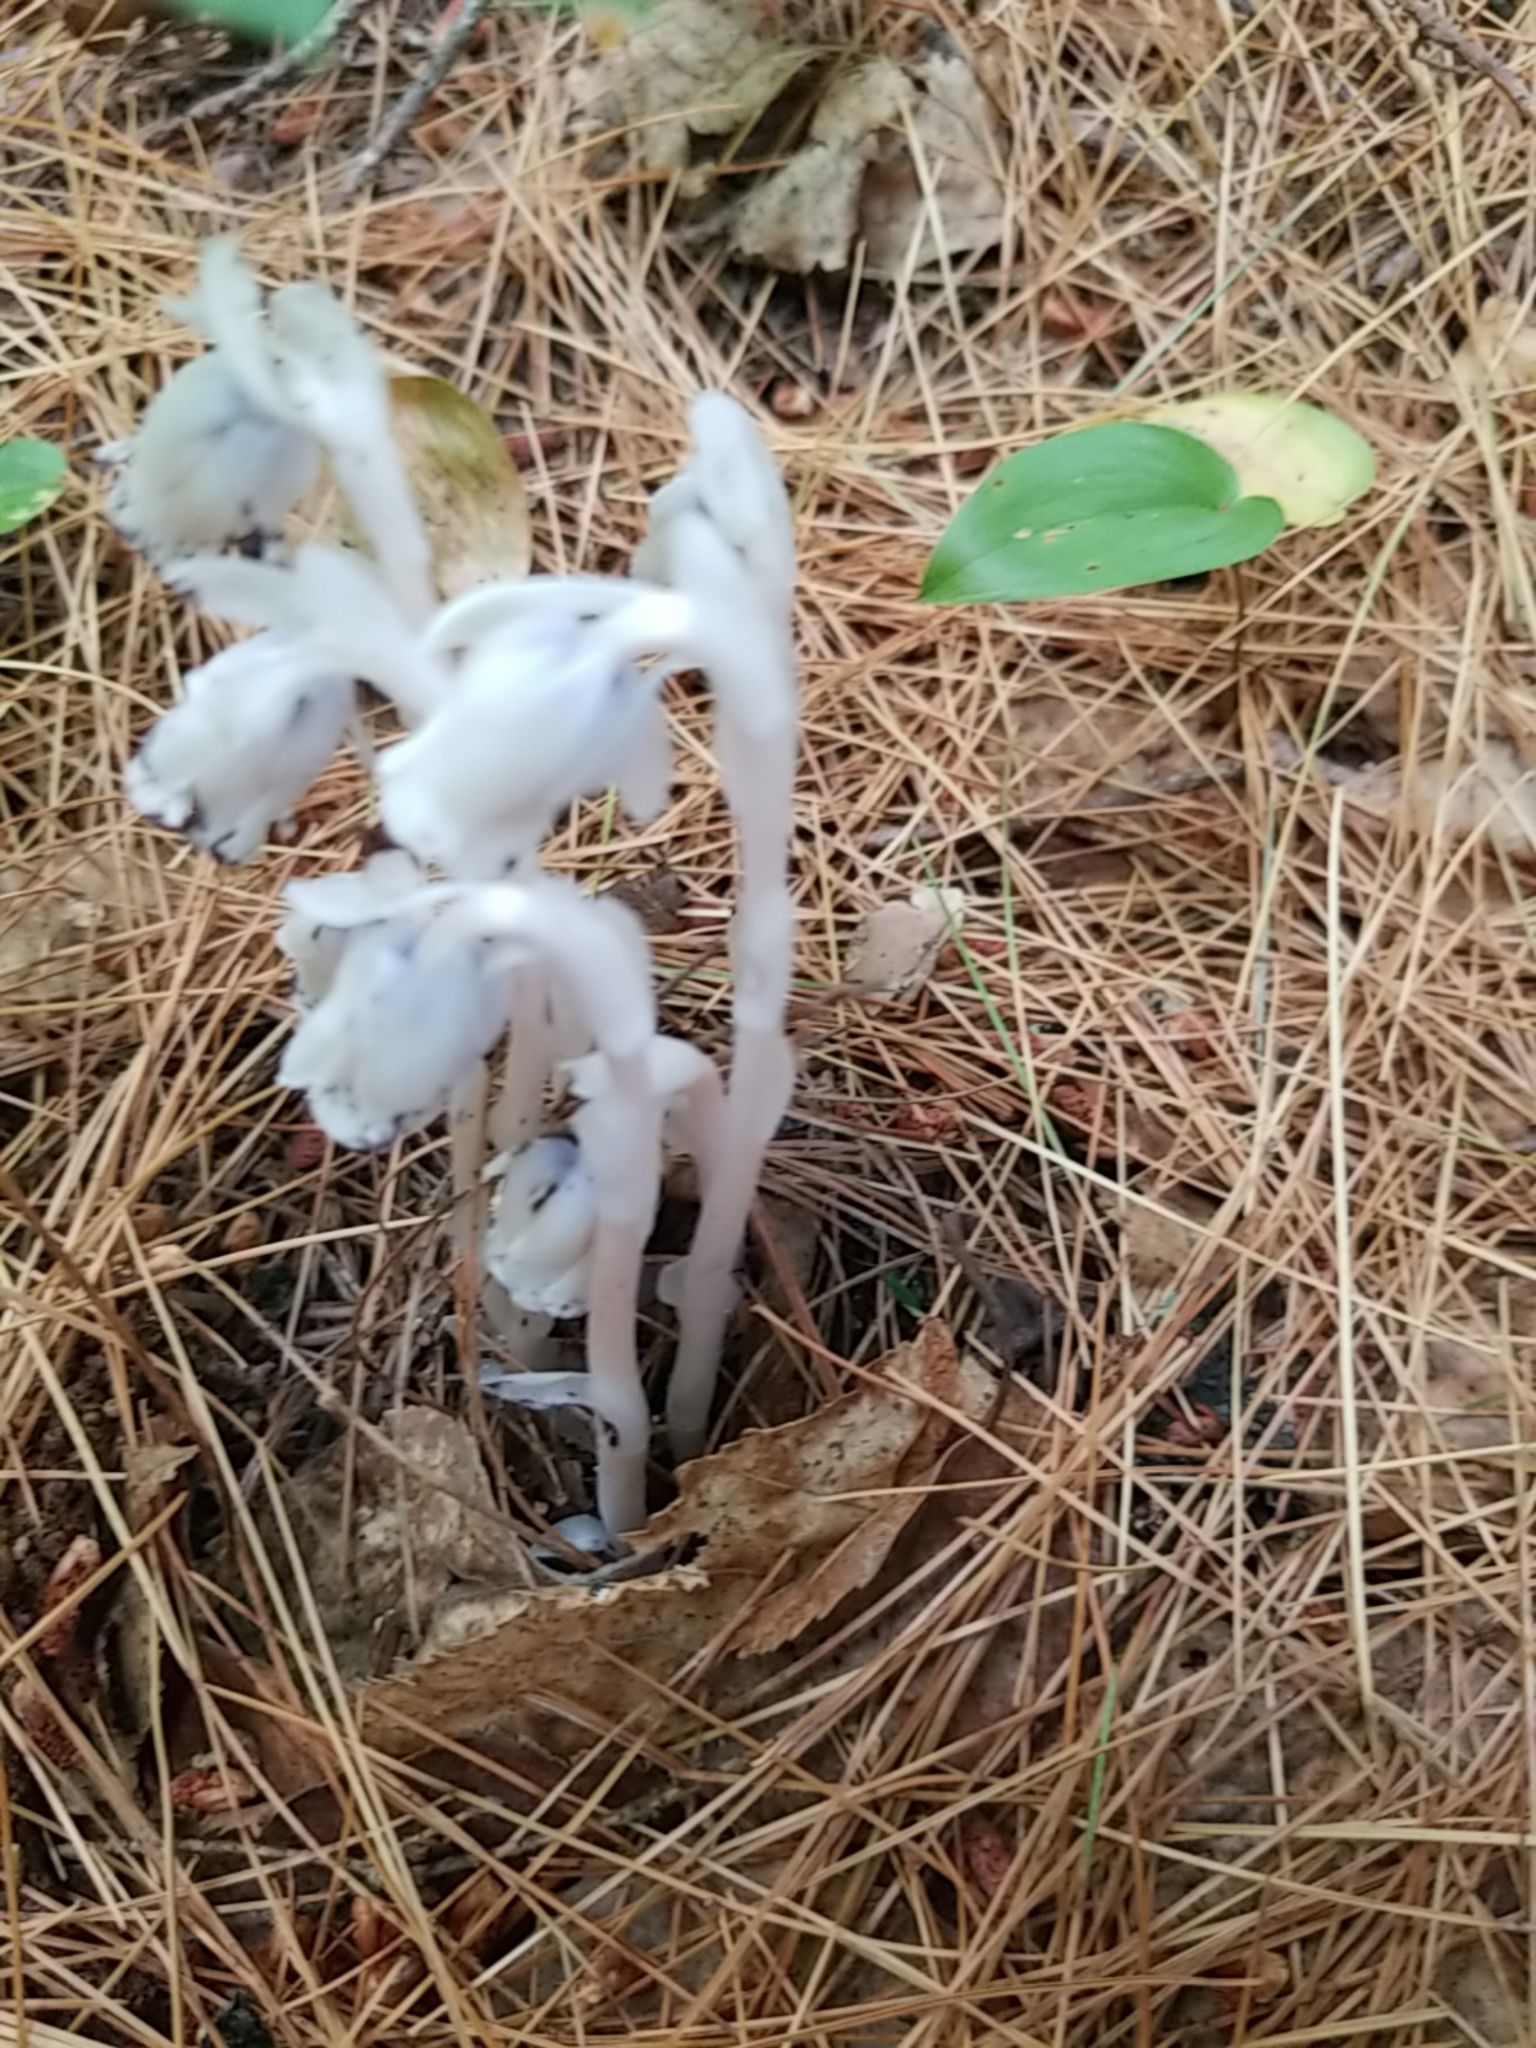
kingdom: Plantae
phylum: Tracheophyta
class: Magnoliopsida
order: Ericales
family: Ericaceae
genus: Monotropa
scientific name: Monotropa uniflora
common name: Convulsion root
